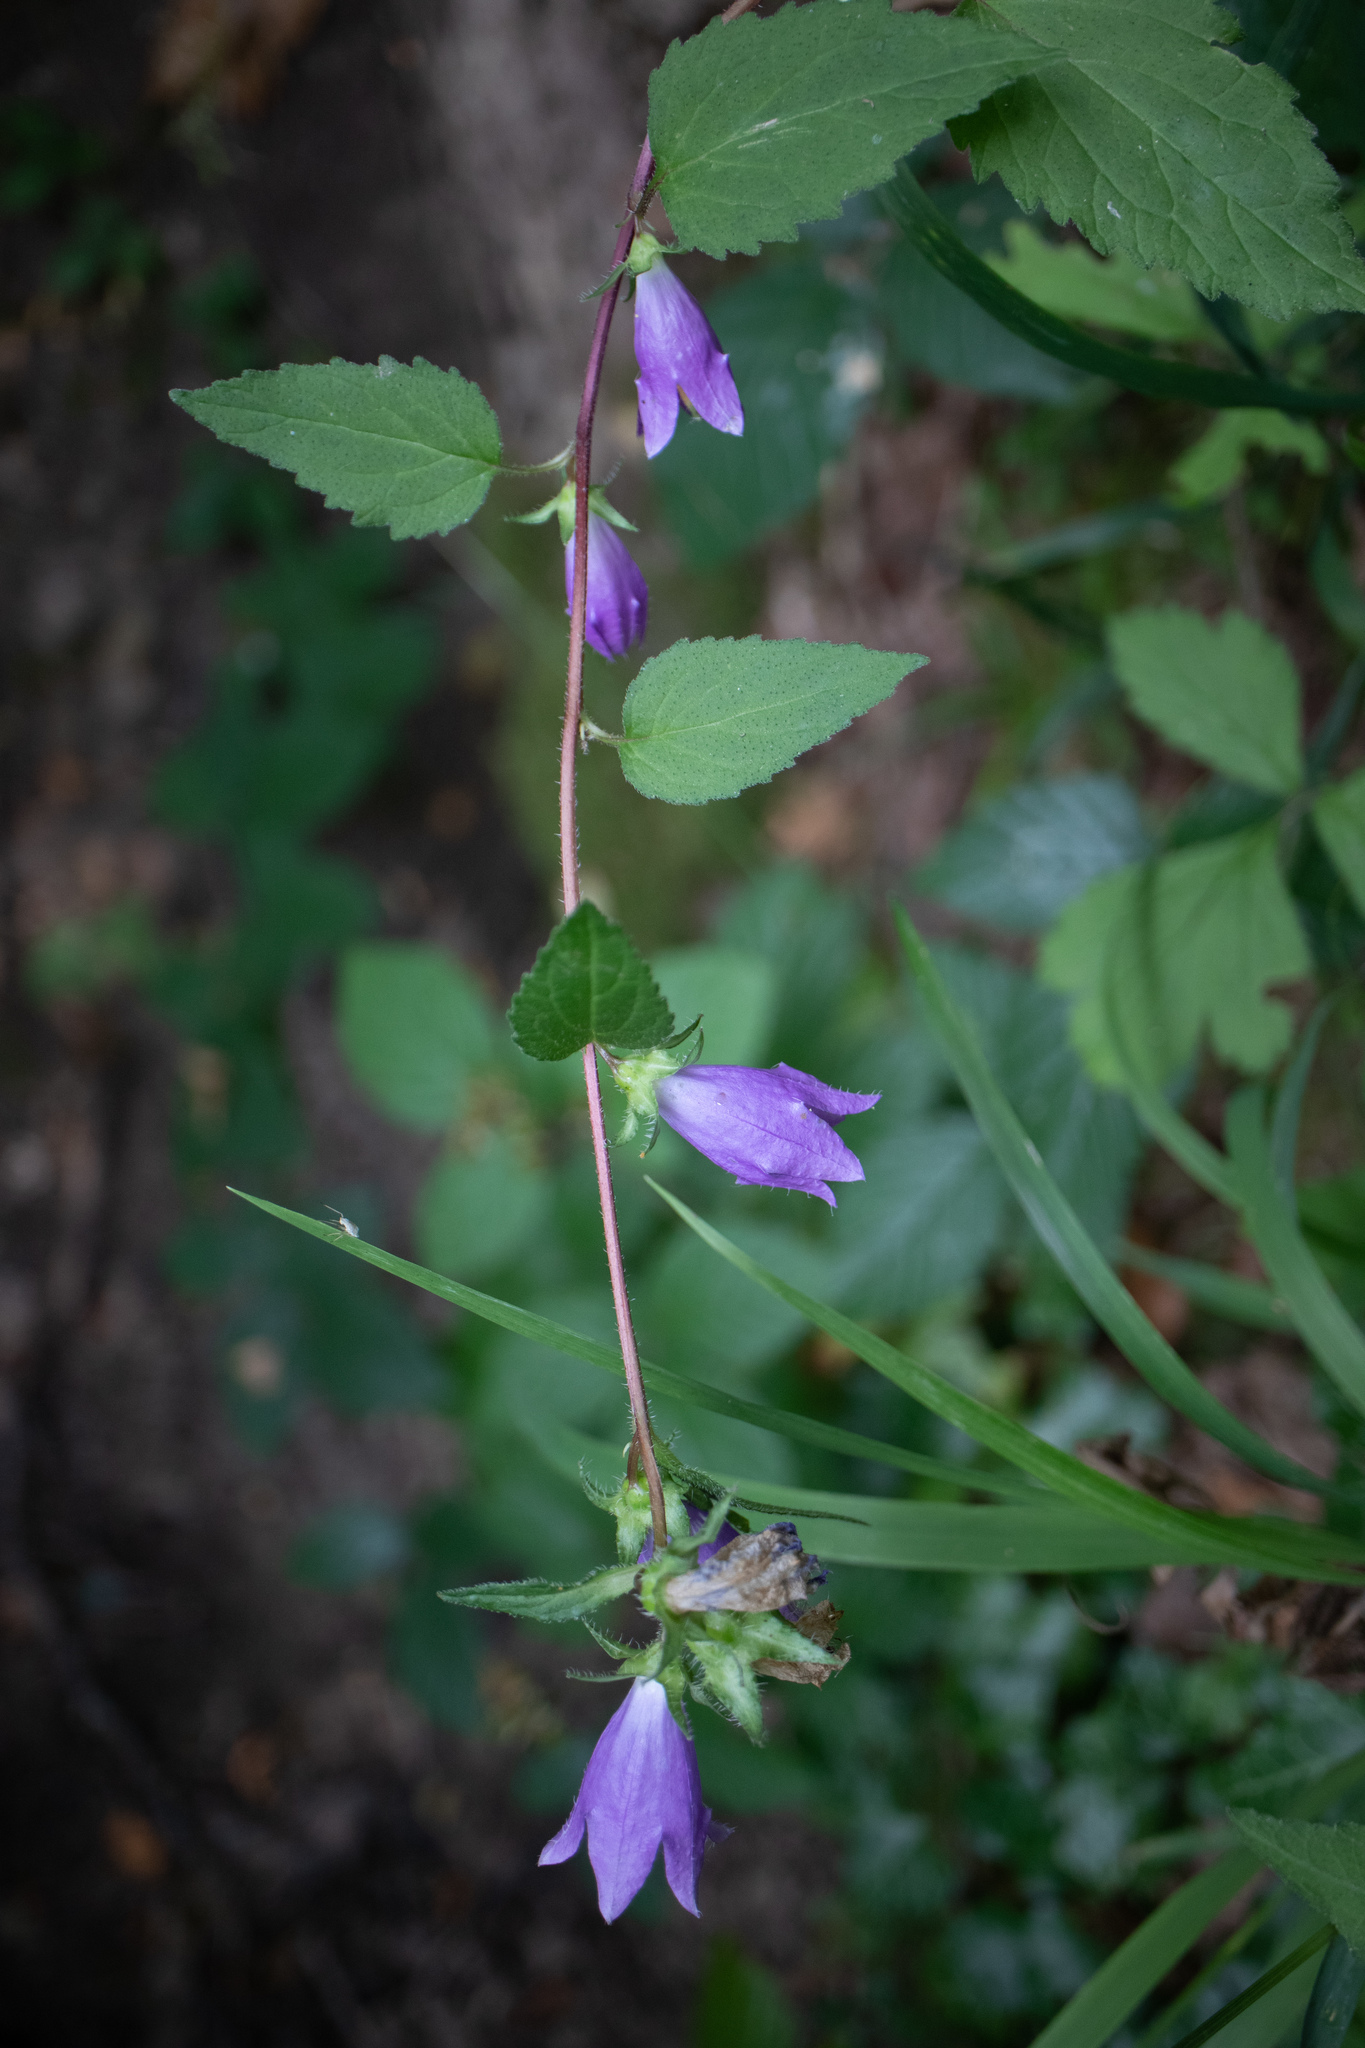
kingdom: Plantae
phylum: Tracheophyta
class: Magnoliopsida
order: Asterales
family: Campanulaceae
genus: Campanula
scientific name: Campanula trachelium
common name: Nettle-leaved bellflower
